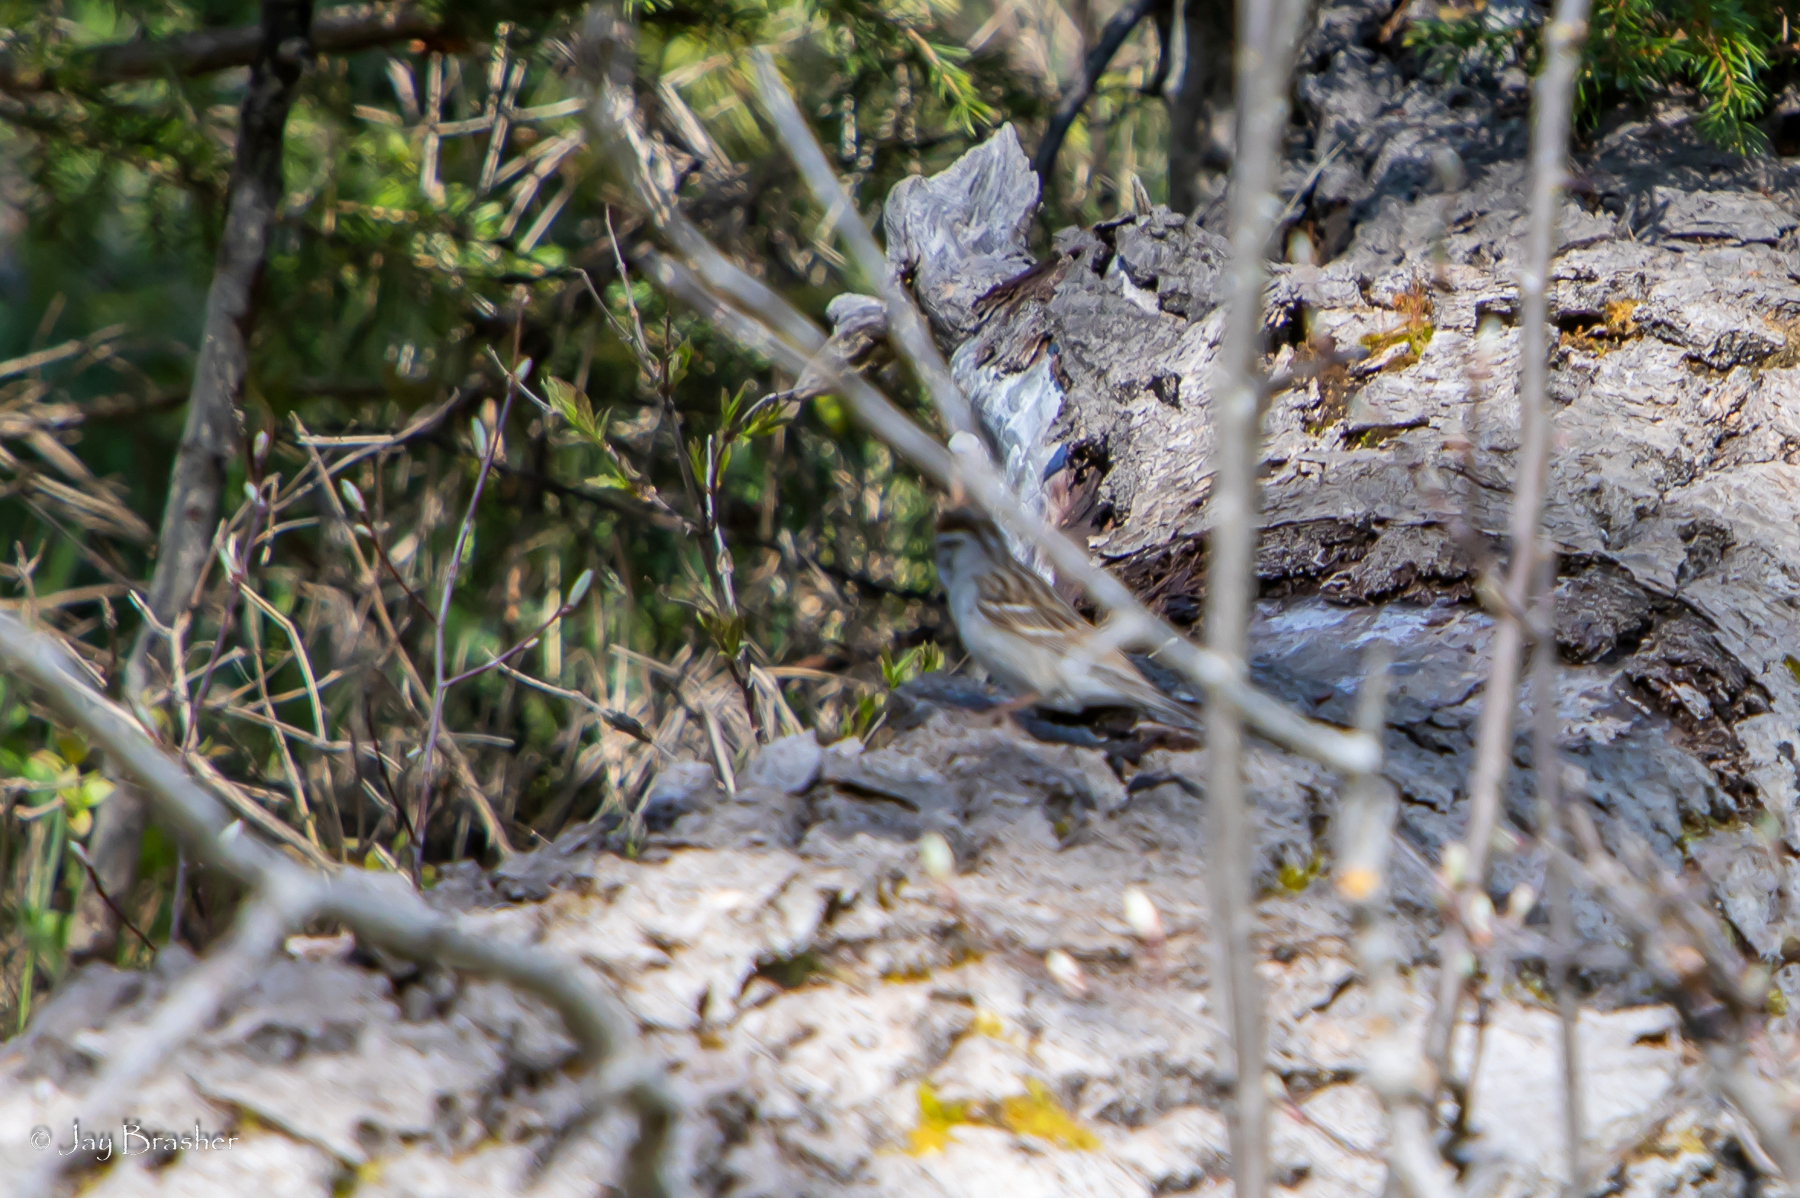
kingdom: Animalia
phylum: Chordata
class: Aves
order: Passeriformes
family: Passerellidae
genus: Spizella
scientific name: Spizella passerina
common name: Chipping sparrow
